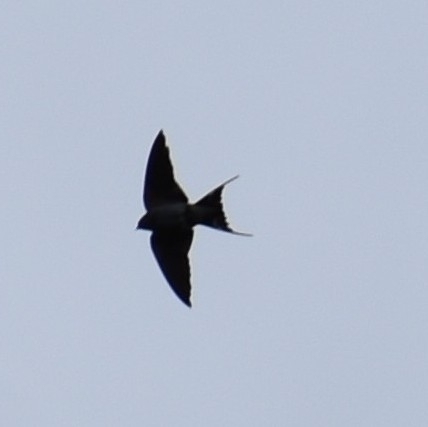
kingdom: Animalia
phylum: Chordata
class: Aves
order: Passeriformes
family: Hirundinidae
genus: Hirundo
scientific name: Hirundo rustica
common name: Barn swallow
